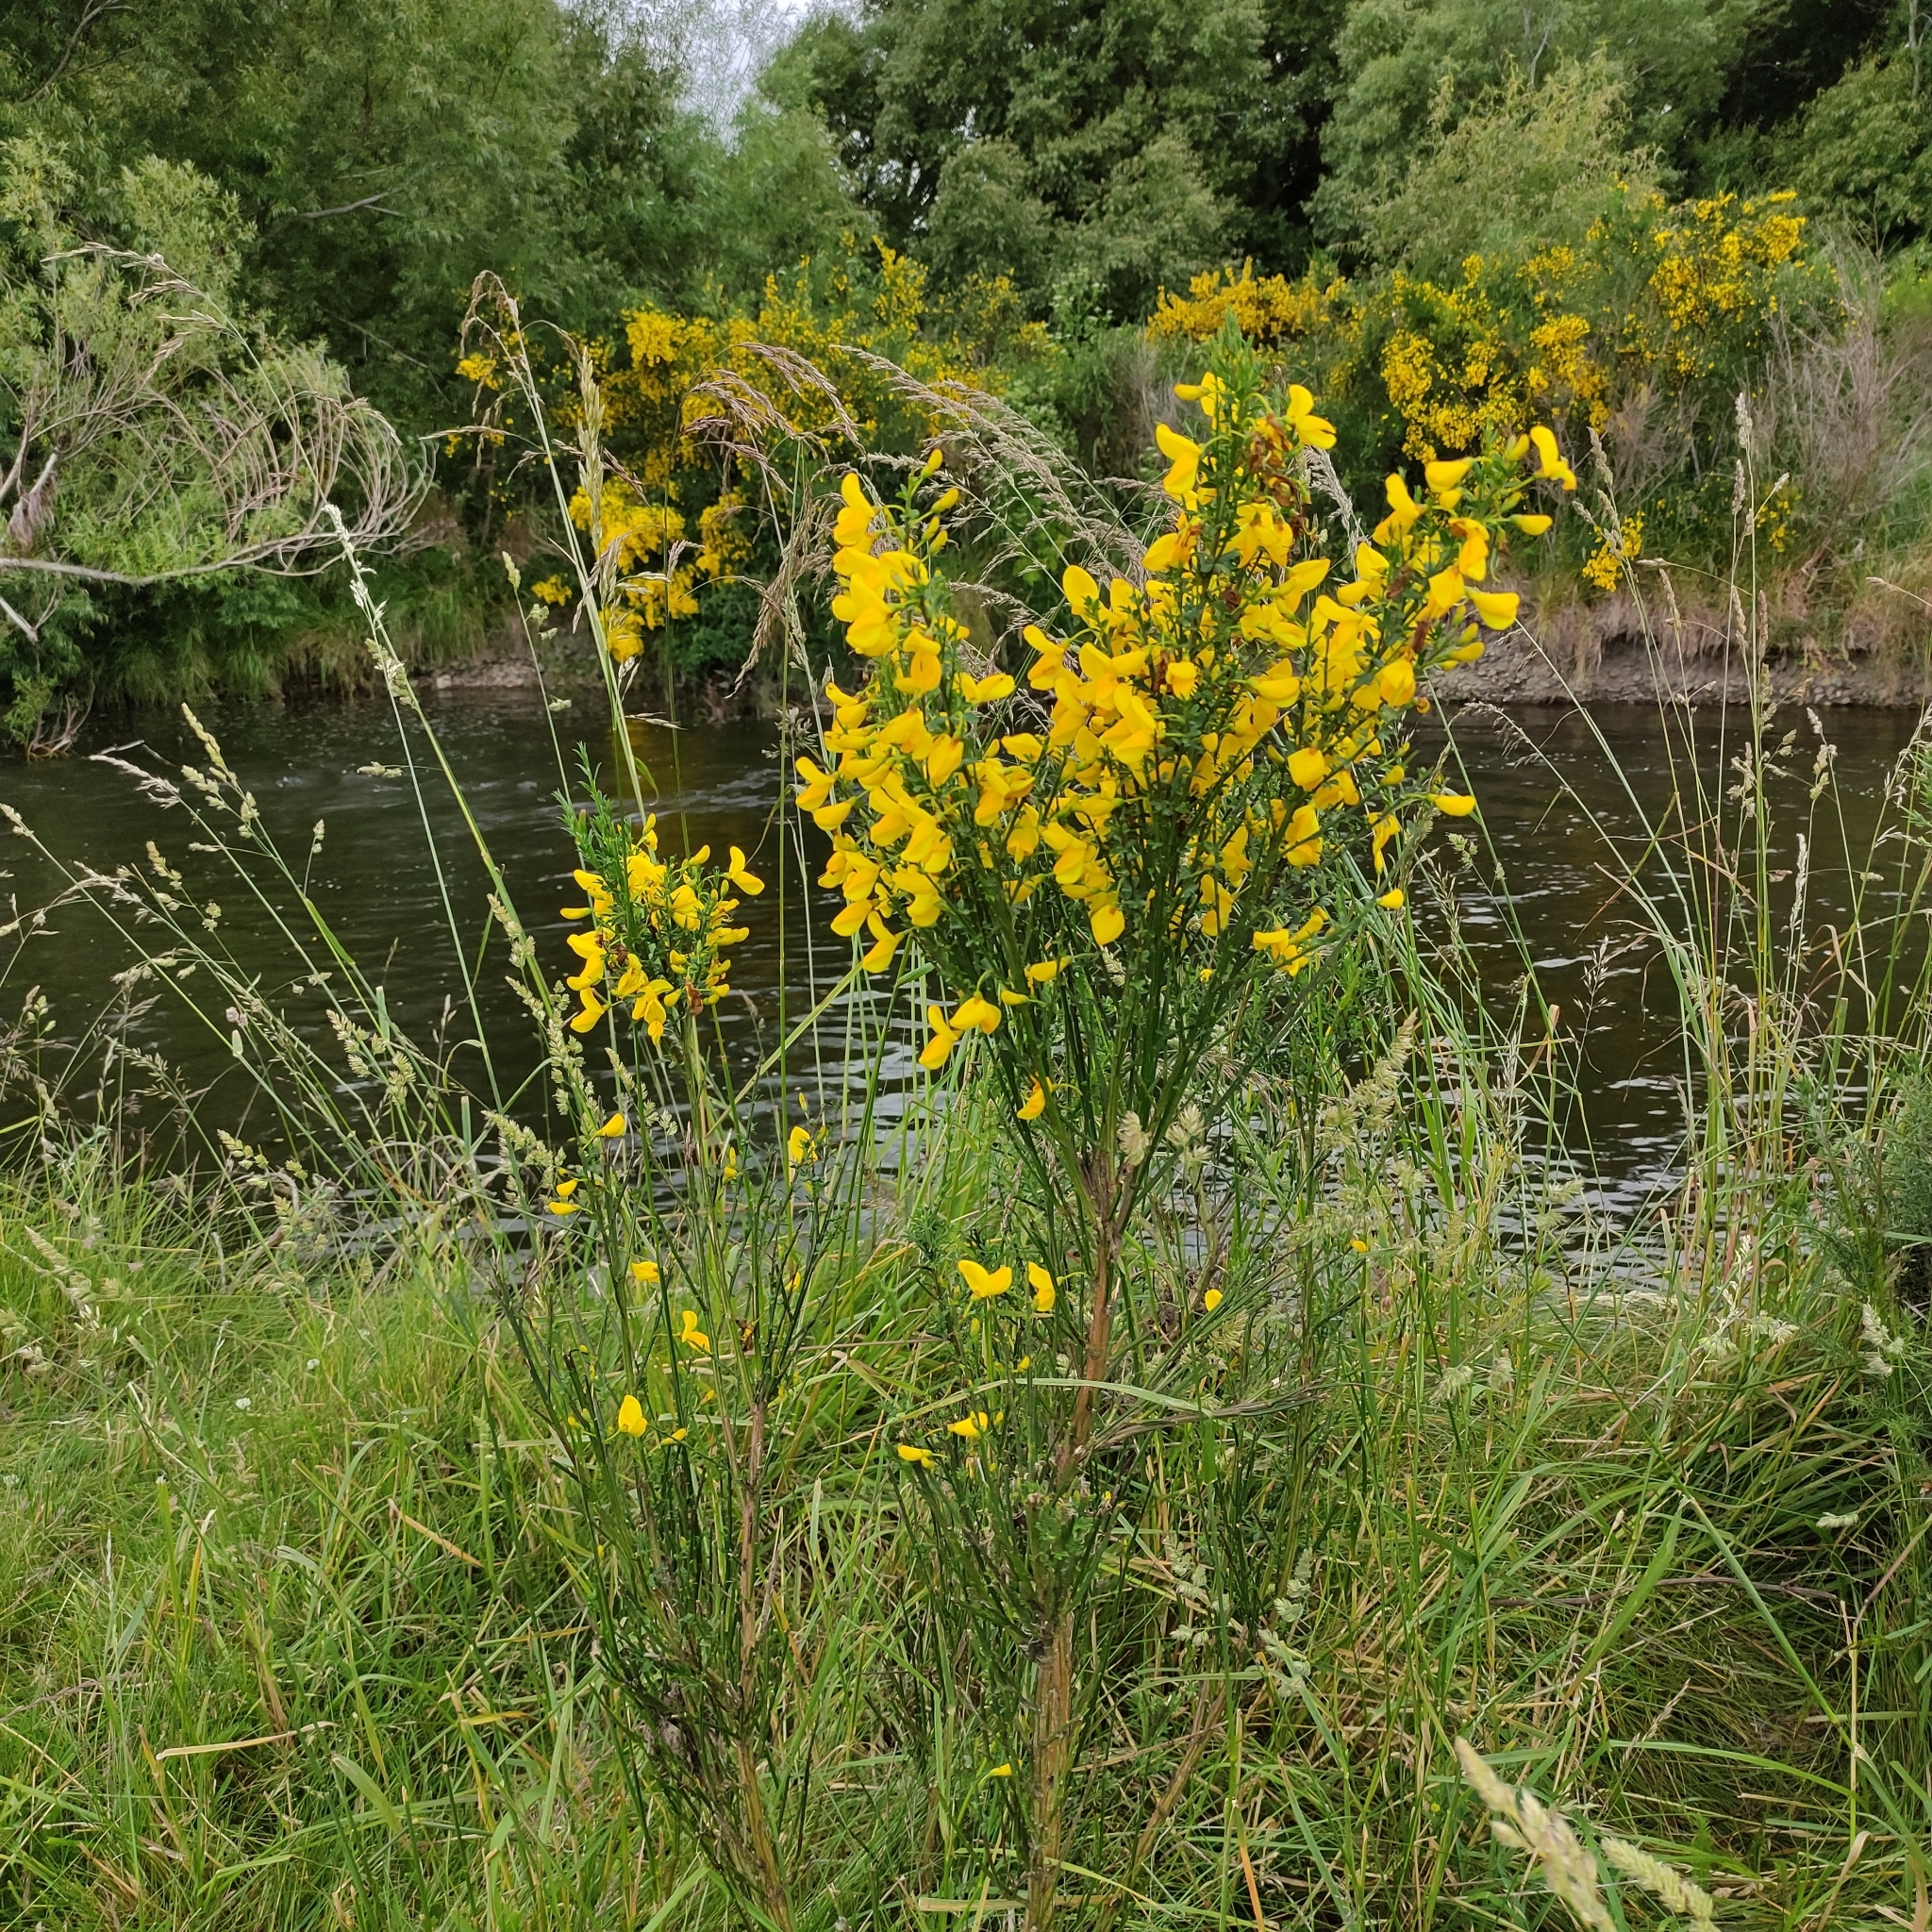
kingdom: Plantae
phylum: Tracheophyta
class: Magnoliopsida
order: Fabales
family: Fabaceae
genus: Cytisus
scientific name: Cytisus scoparius
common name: Scotch broom
